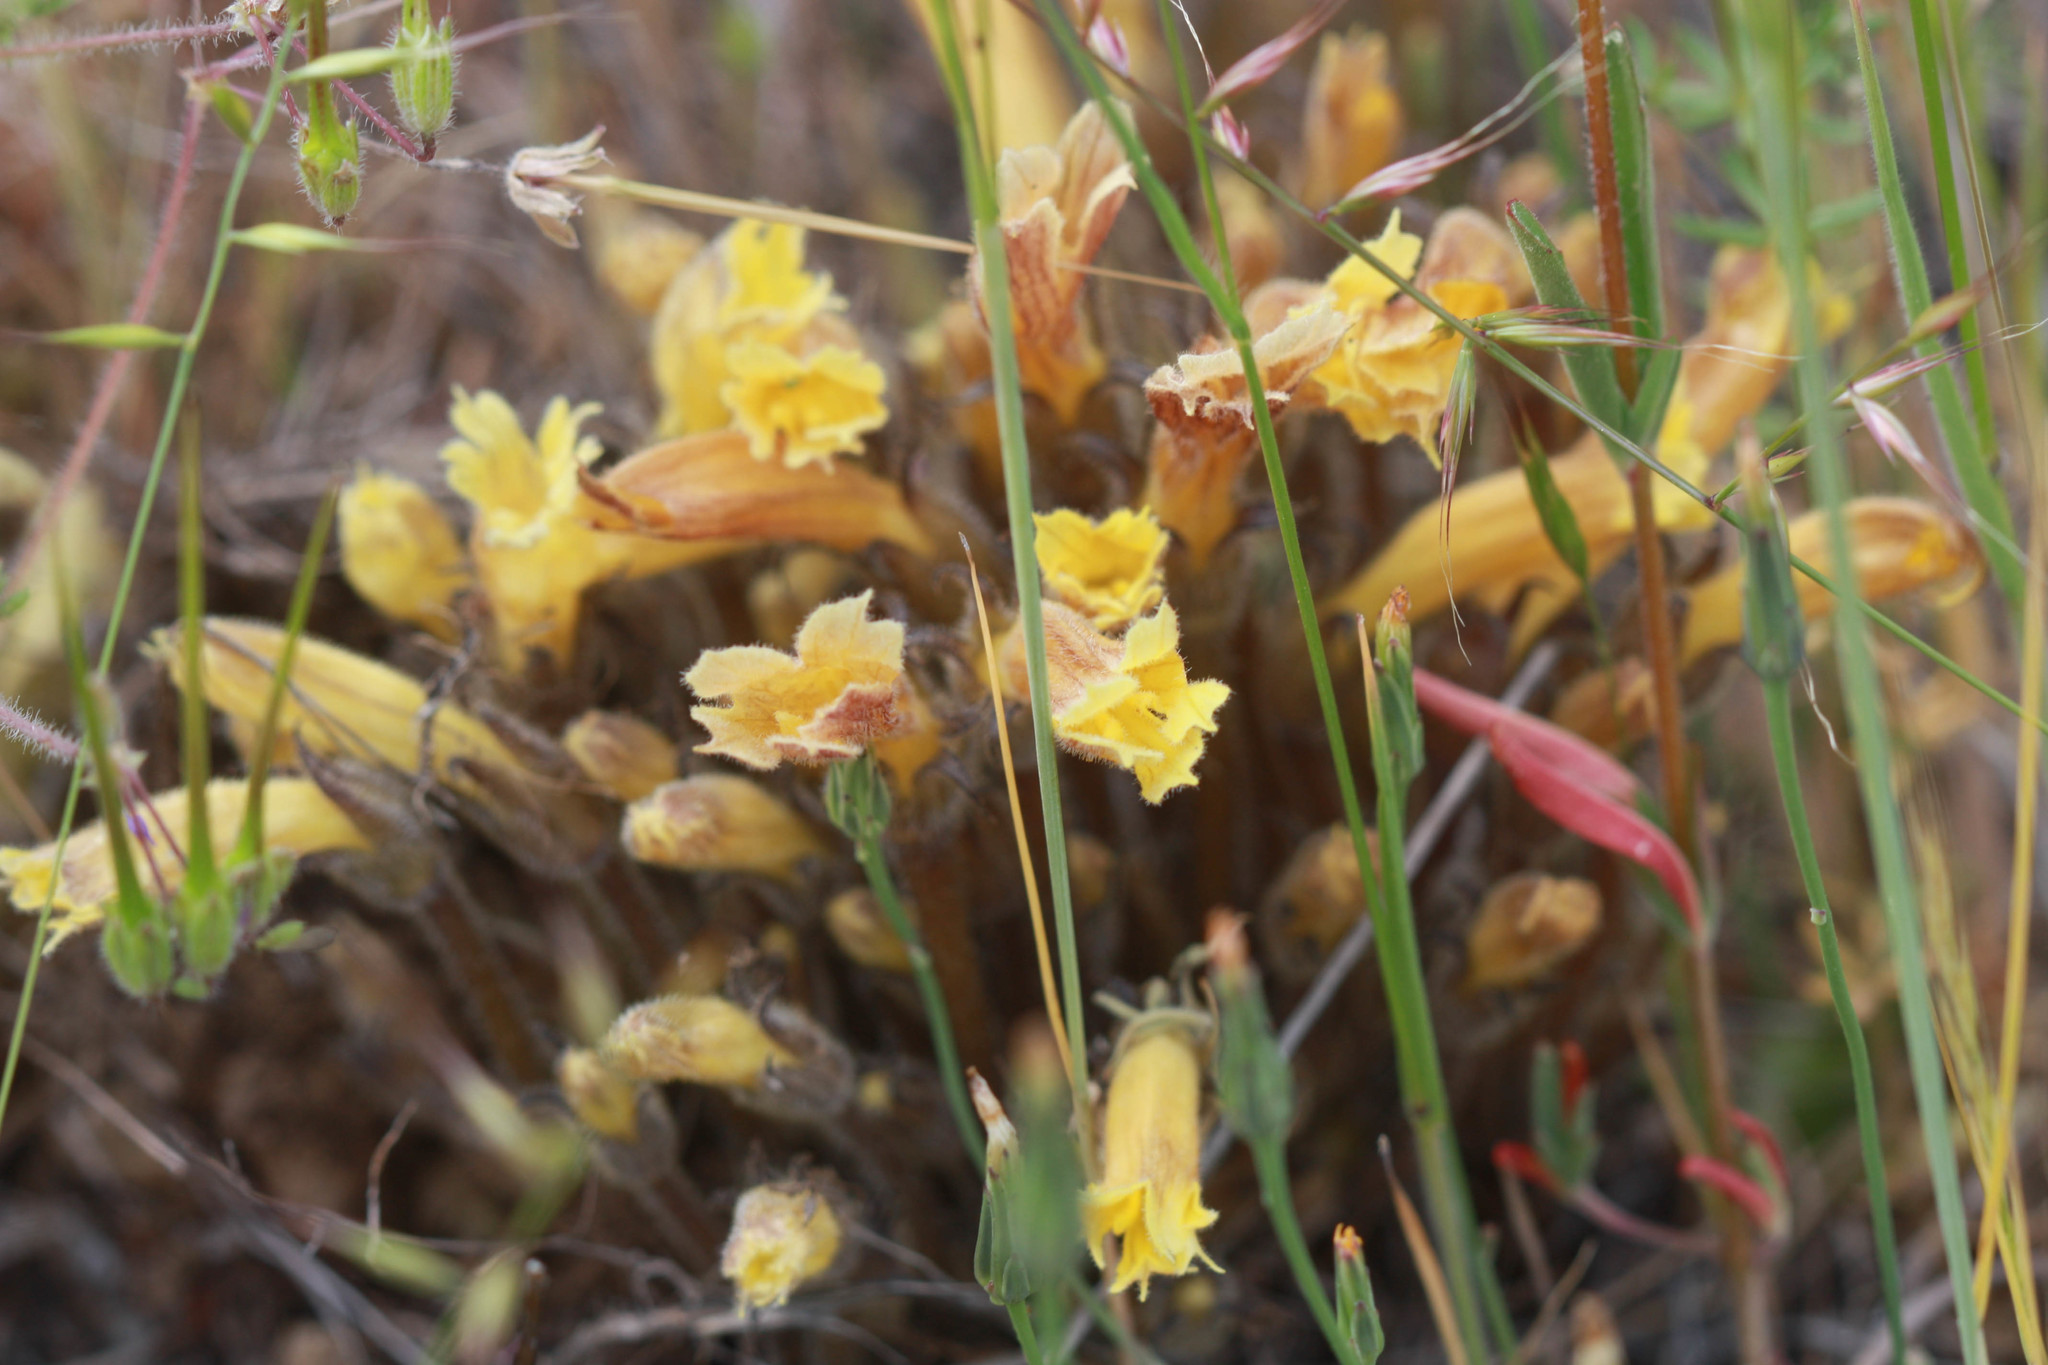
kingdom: Plantae
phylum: Tracheophyta
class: Magnoliopsida
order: Lamiales
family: Orobanchaceae
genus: Aphyllon
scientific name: Aphyllon franciscanum
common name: San francisco broomrape
